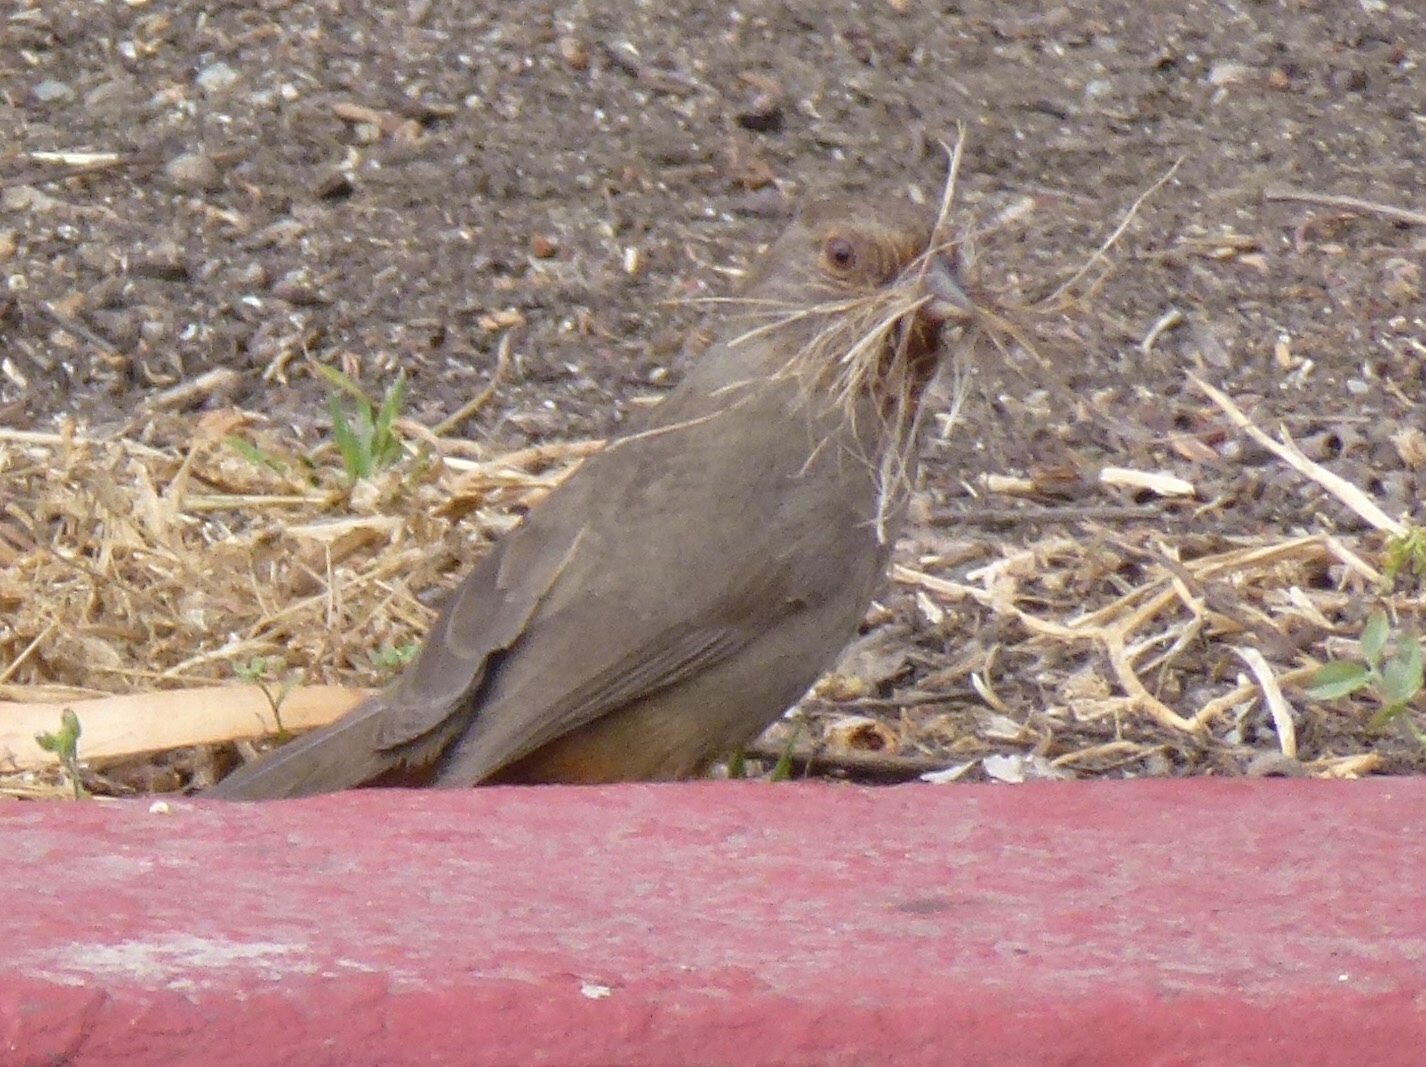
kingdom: Animalia
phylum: Chordata
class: Aves
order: Passeriformes
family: Passerellidae
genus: Melozone
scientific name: Melozone crissalis
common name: California towhee
